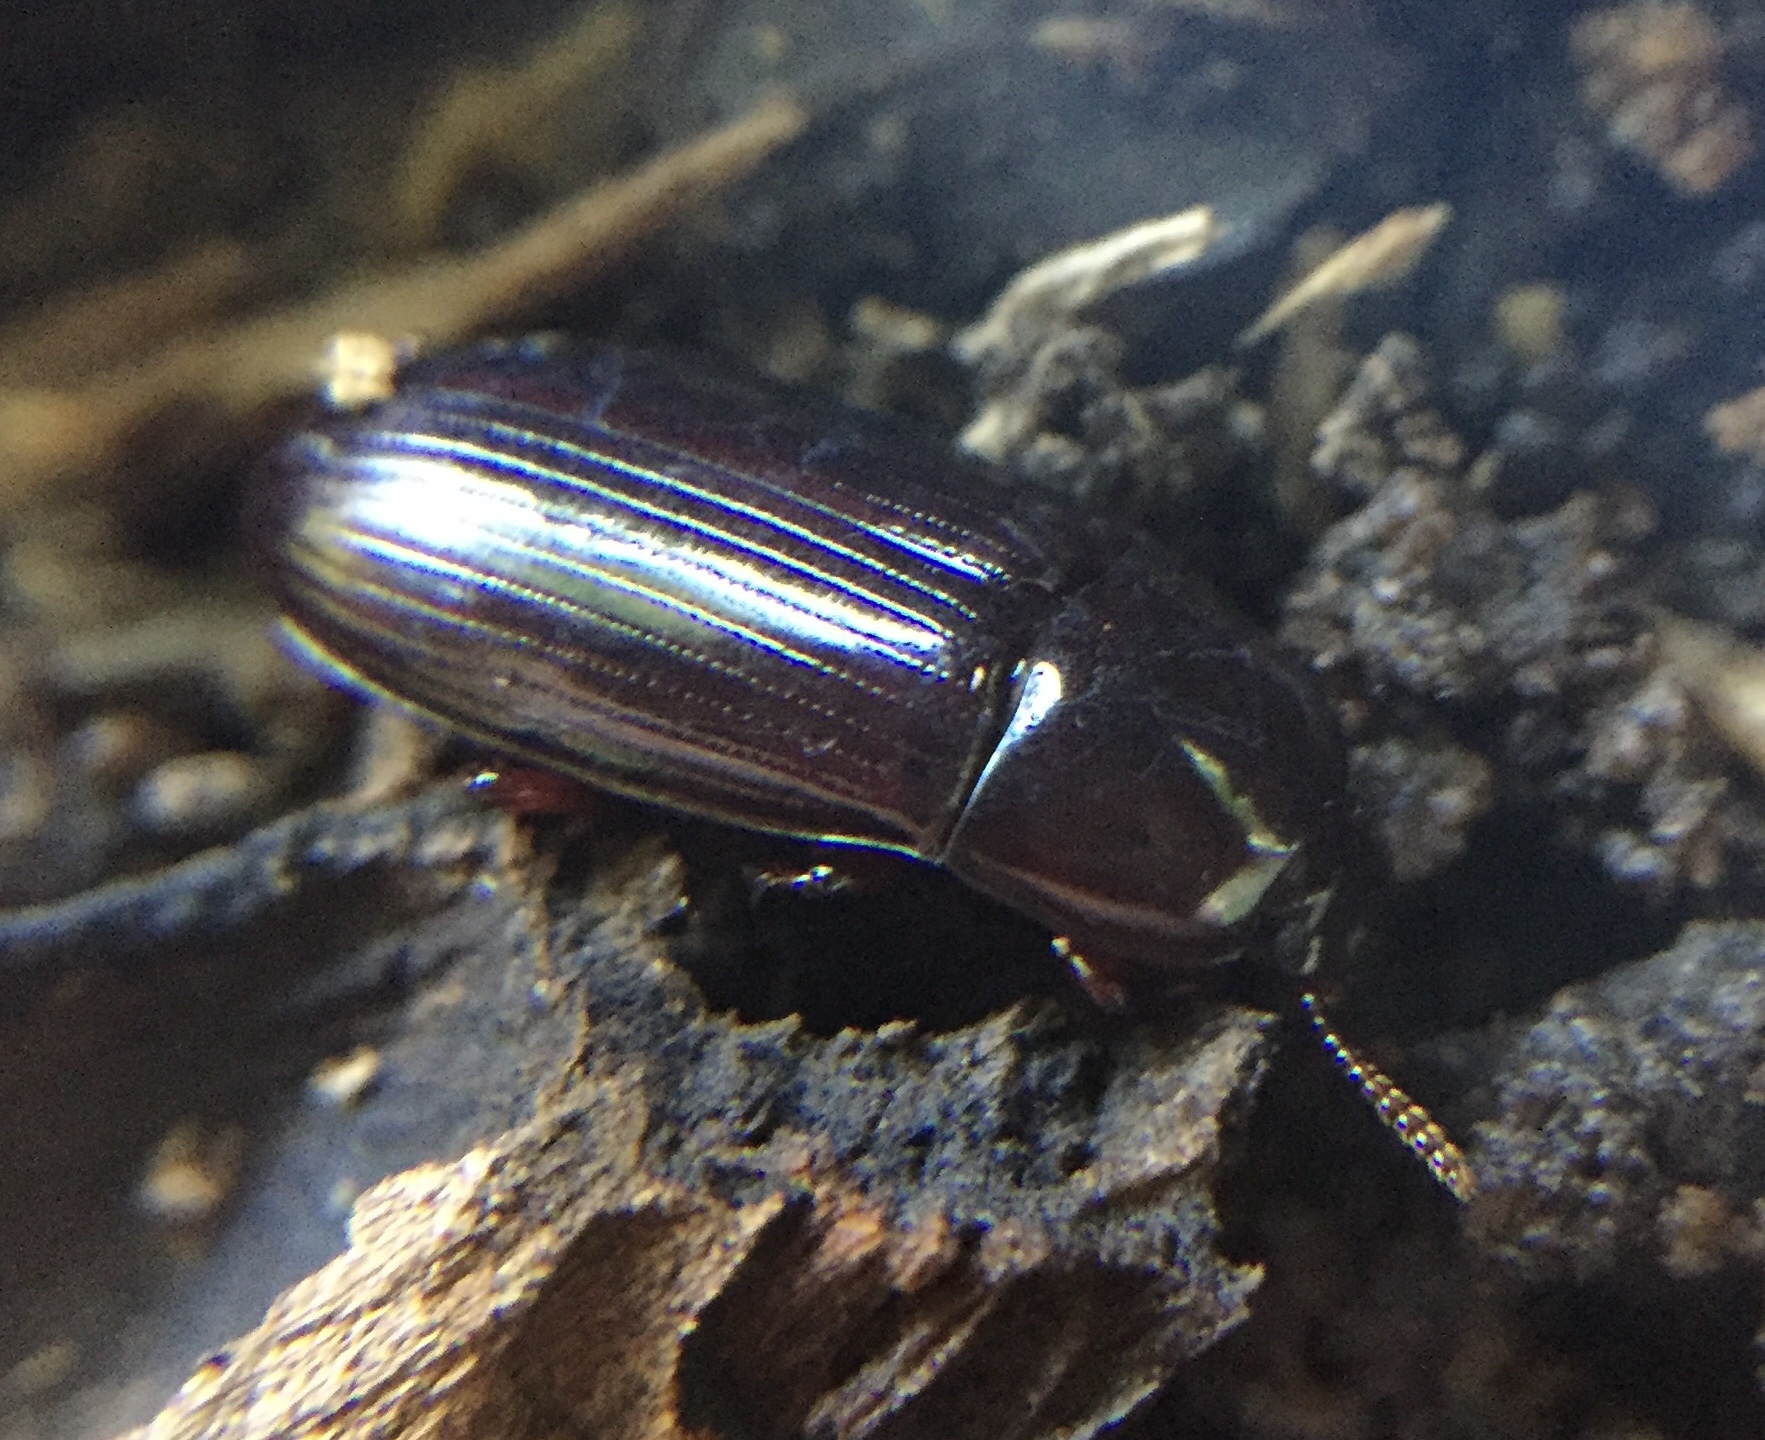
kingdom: Animalia
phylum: Arthropoda
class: Insecta
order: Coleoptera
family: Tenebrionidae
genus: Uloma
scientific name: Uloma tenebrionoides
